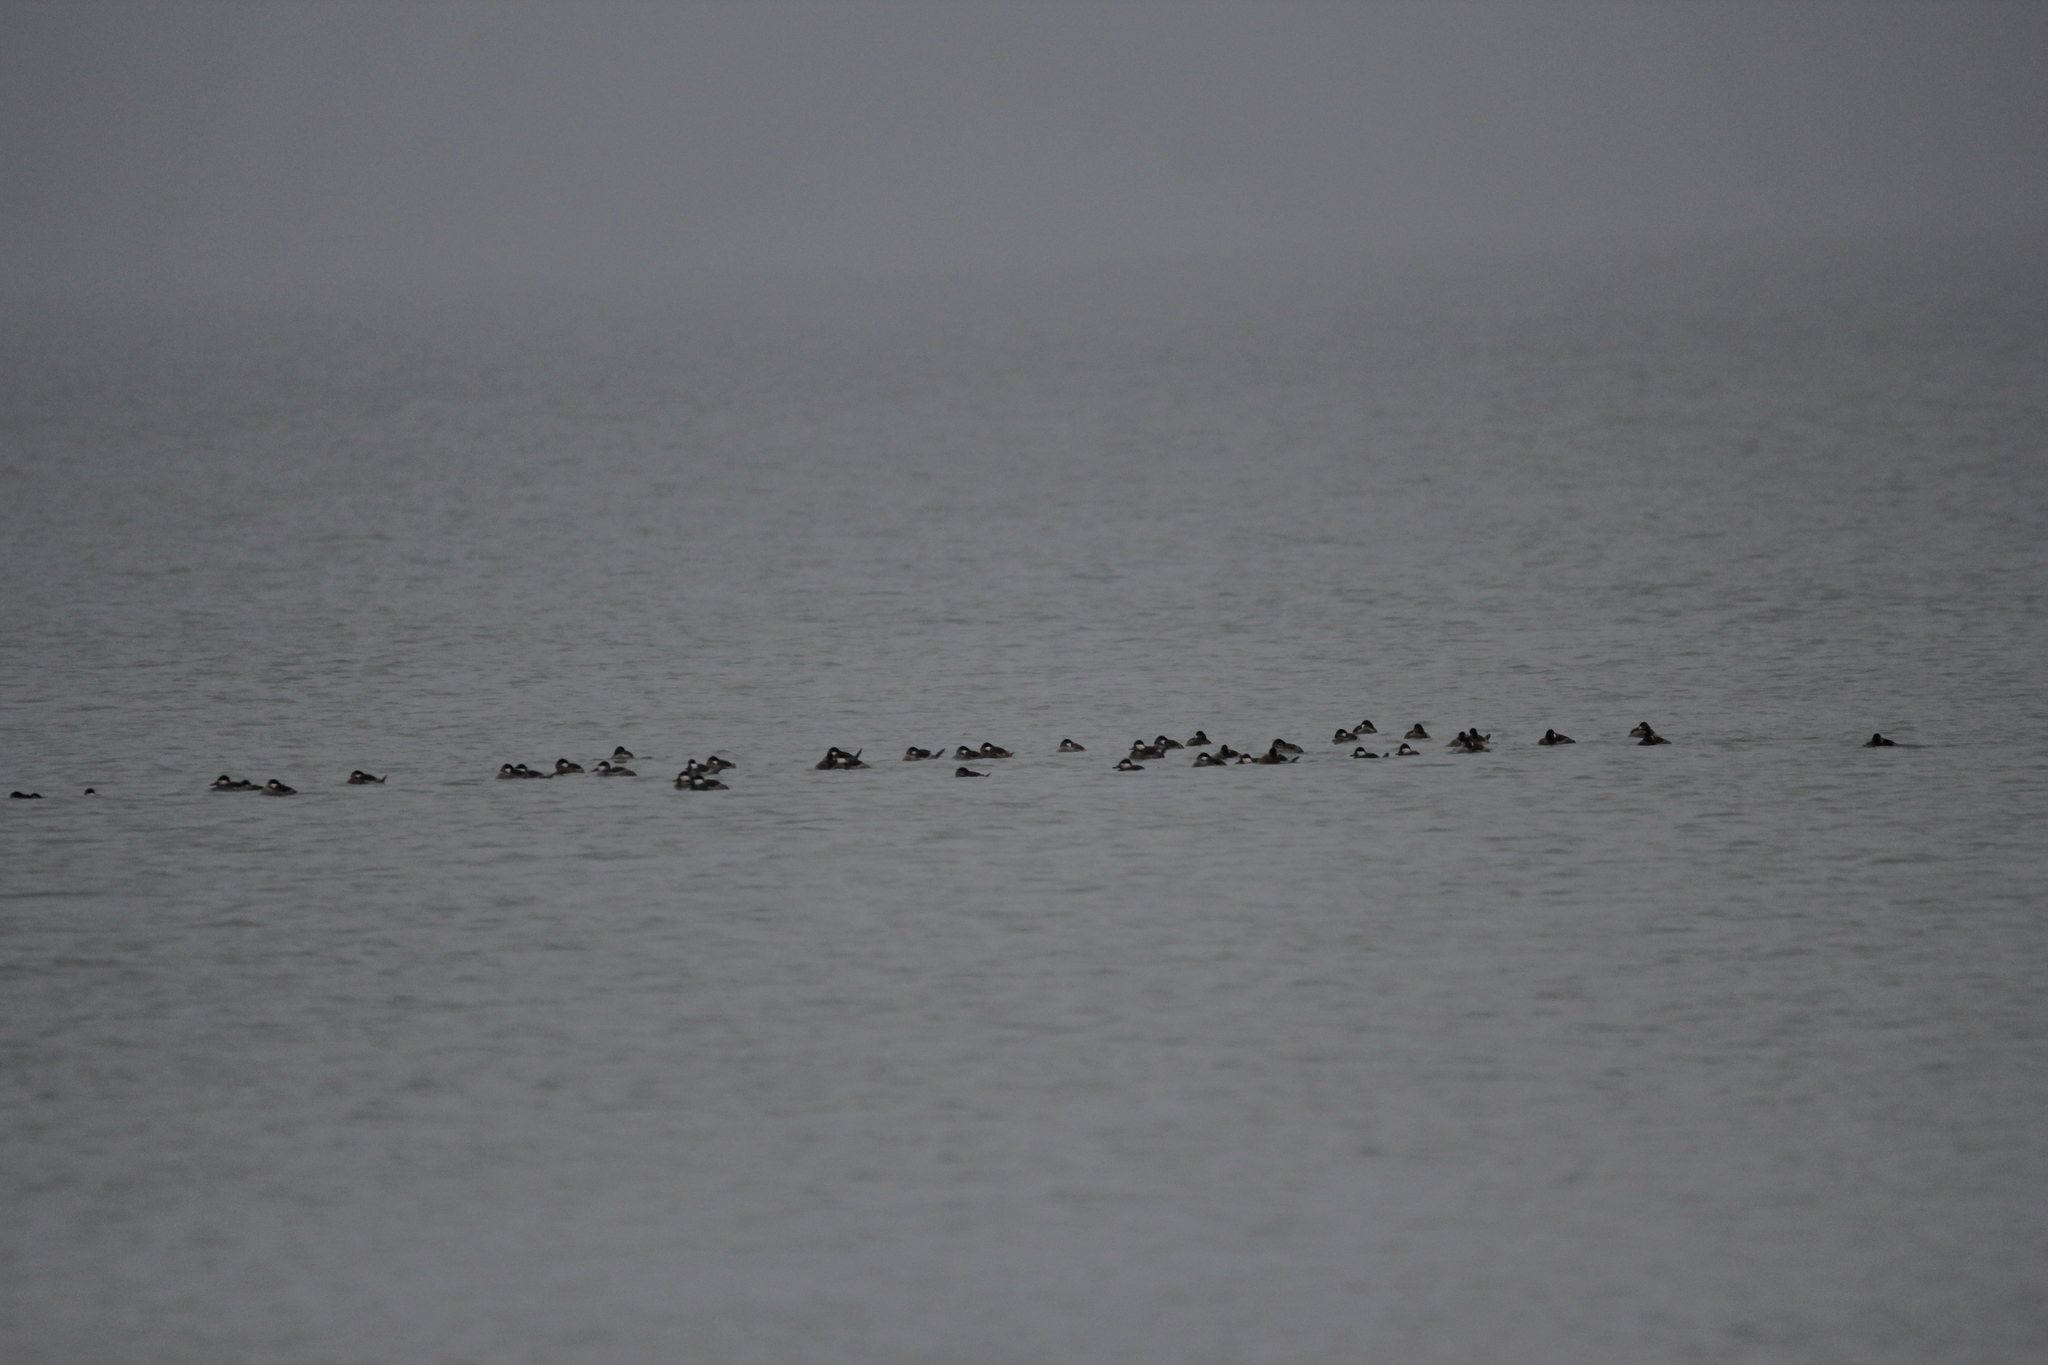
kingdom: Animalia
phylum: Chordata
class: Aves
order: Anseriformes
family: Anatidae
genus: Oxyura
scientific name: Oxyura jamaicensis
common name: Ruddy duck
